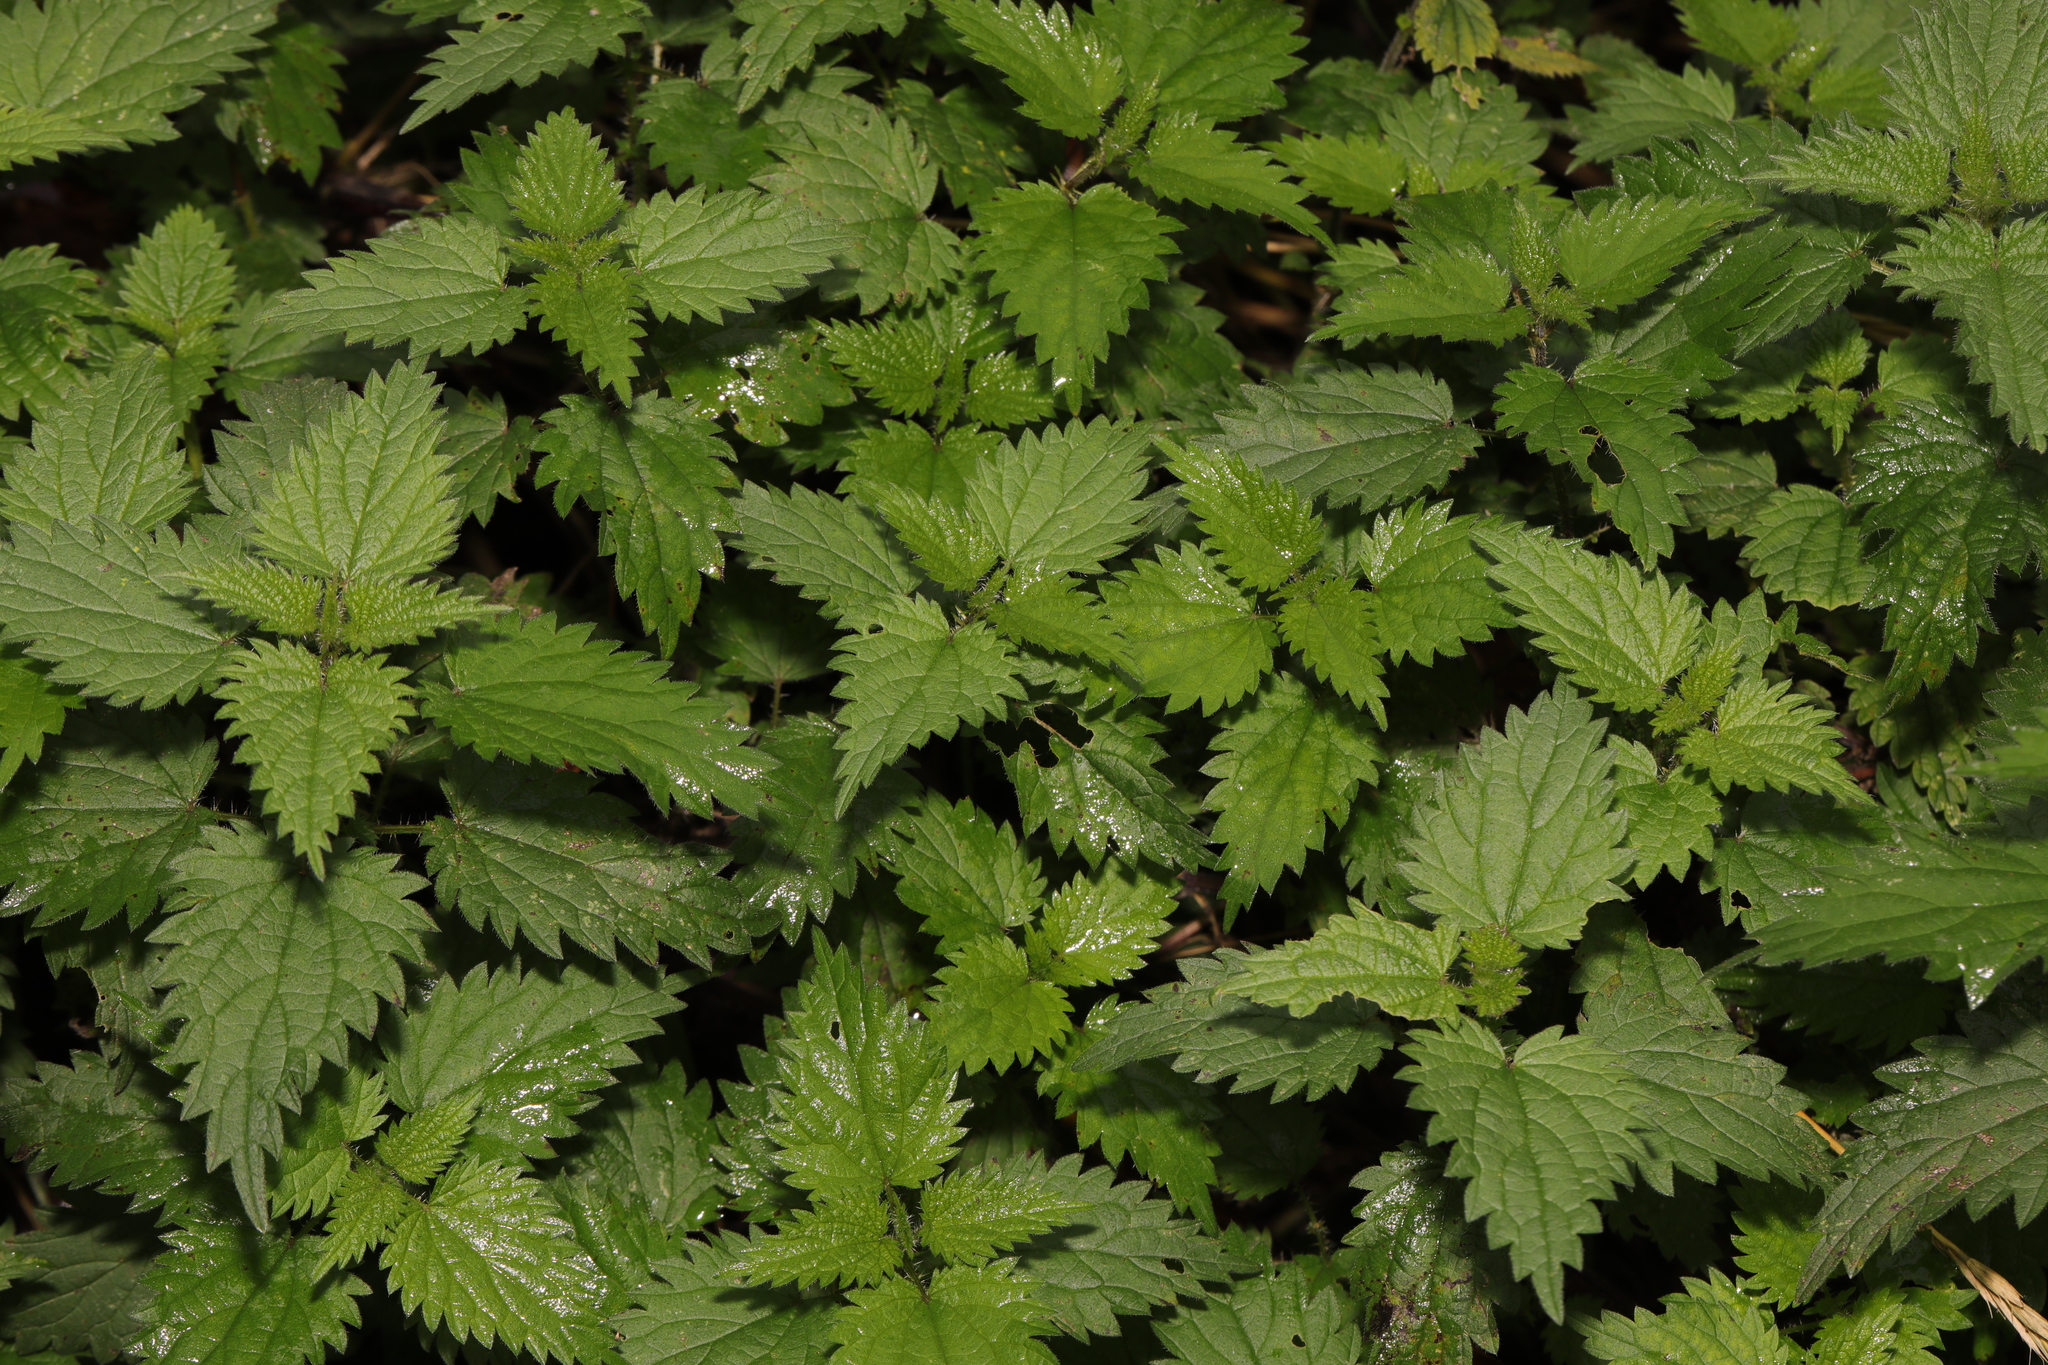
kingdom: Plantae
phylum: Tracheophyta
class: Magnoliopsida
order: Rosales
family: Urticaceae
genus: Urtica
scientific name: Urtica dioica
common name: Common nettle
